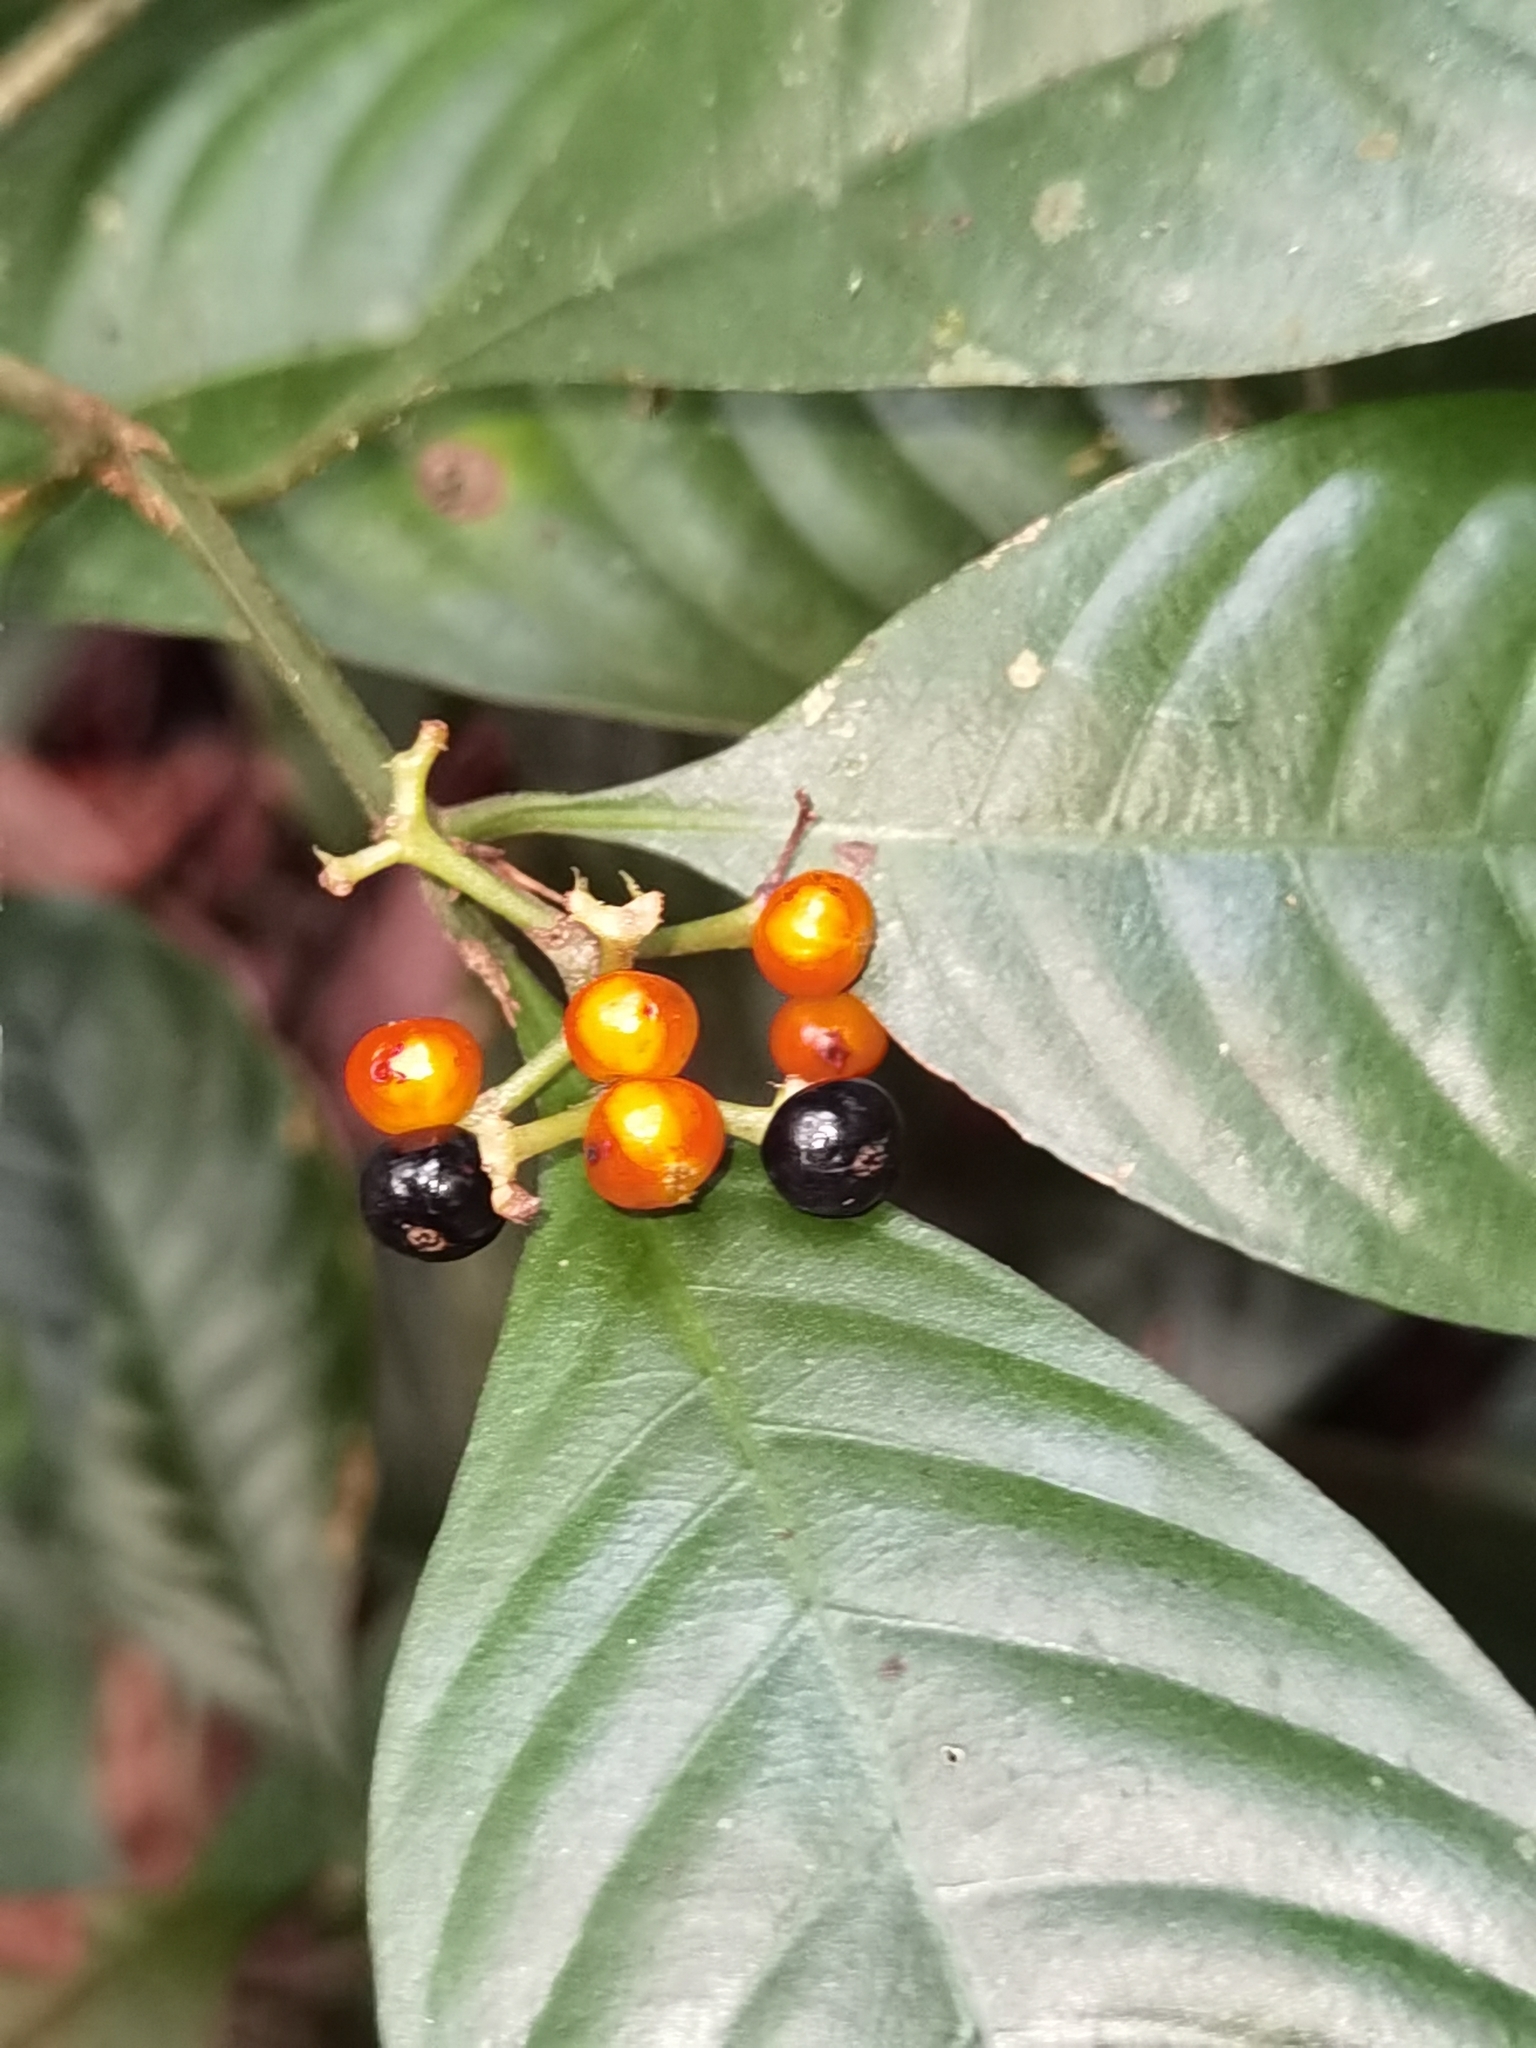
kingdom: Plantae
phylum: Tracheophyta
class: Magnoliopsida
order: Gentianales
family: Rubiaceae
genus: Palicourea
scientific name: Palicourea racemosa
